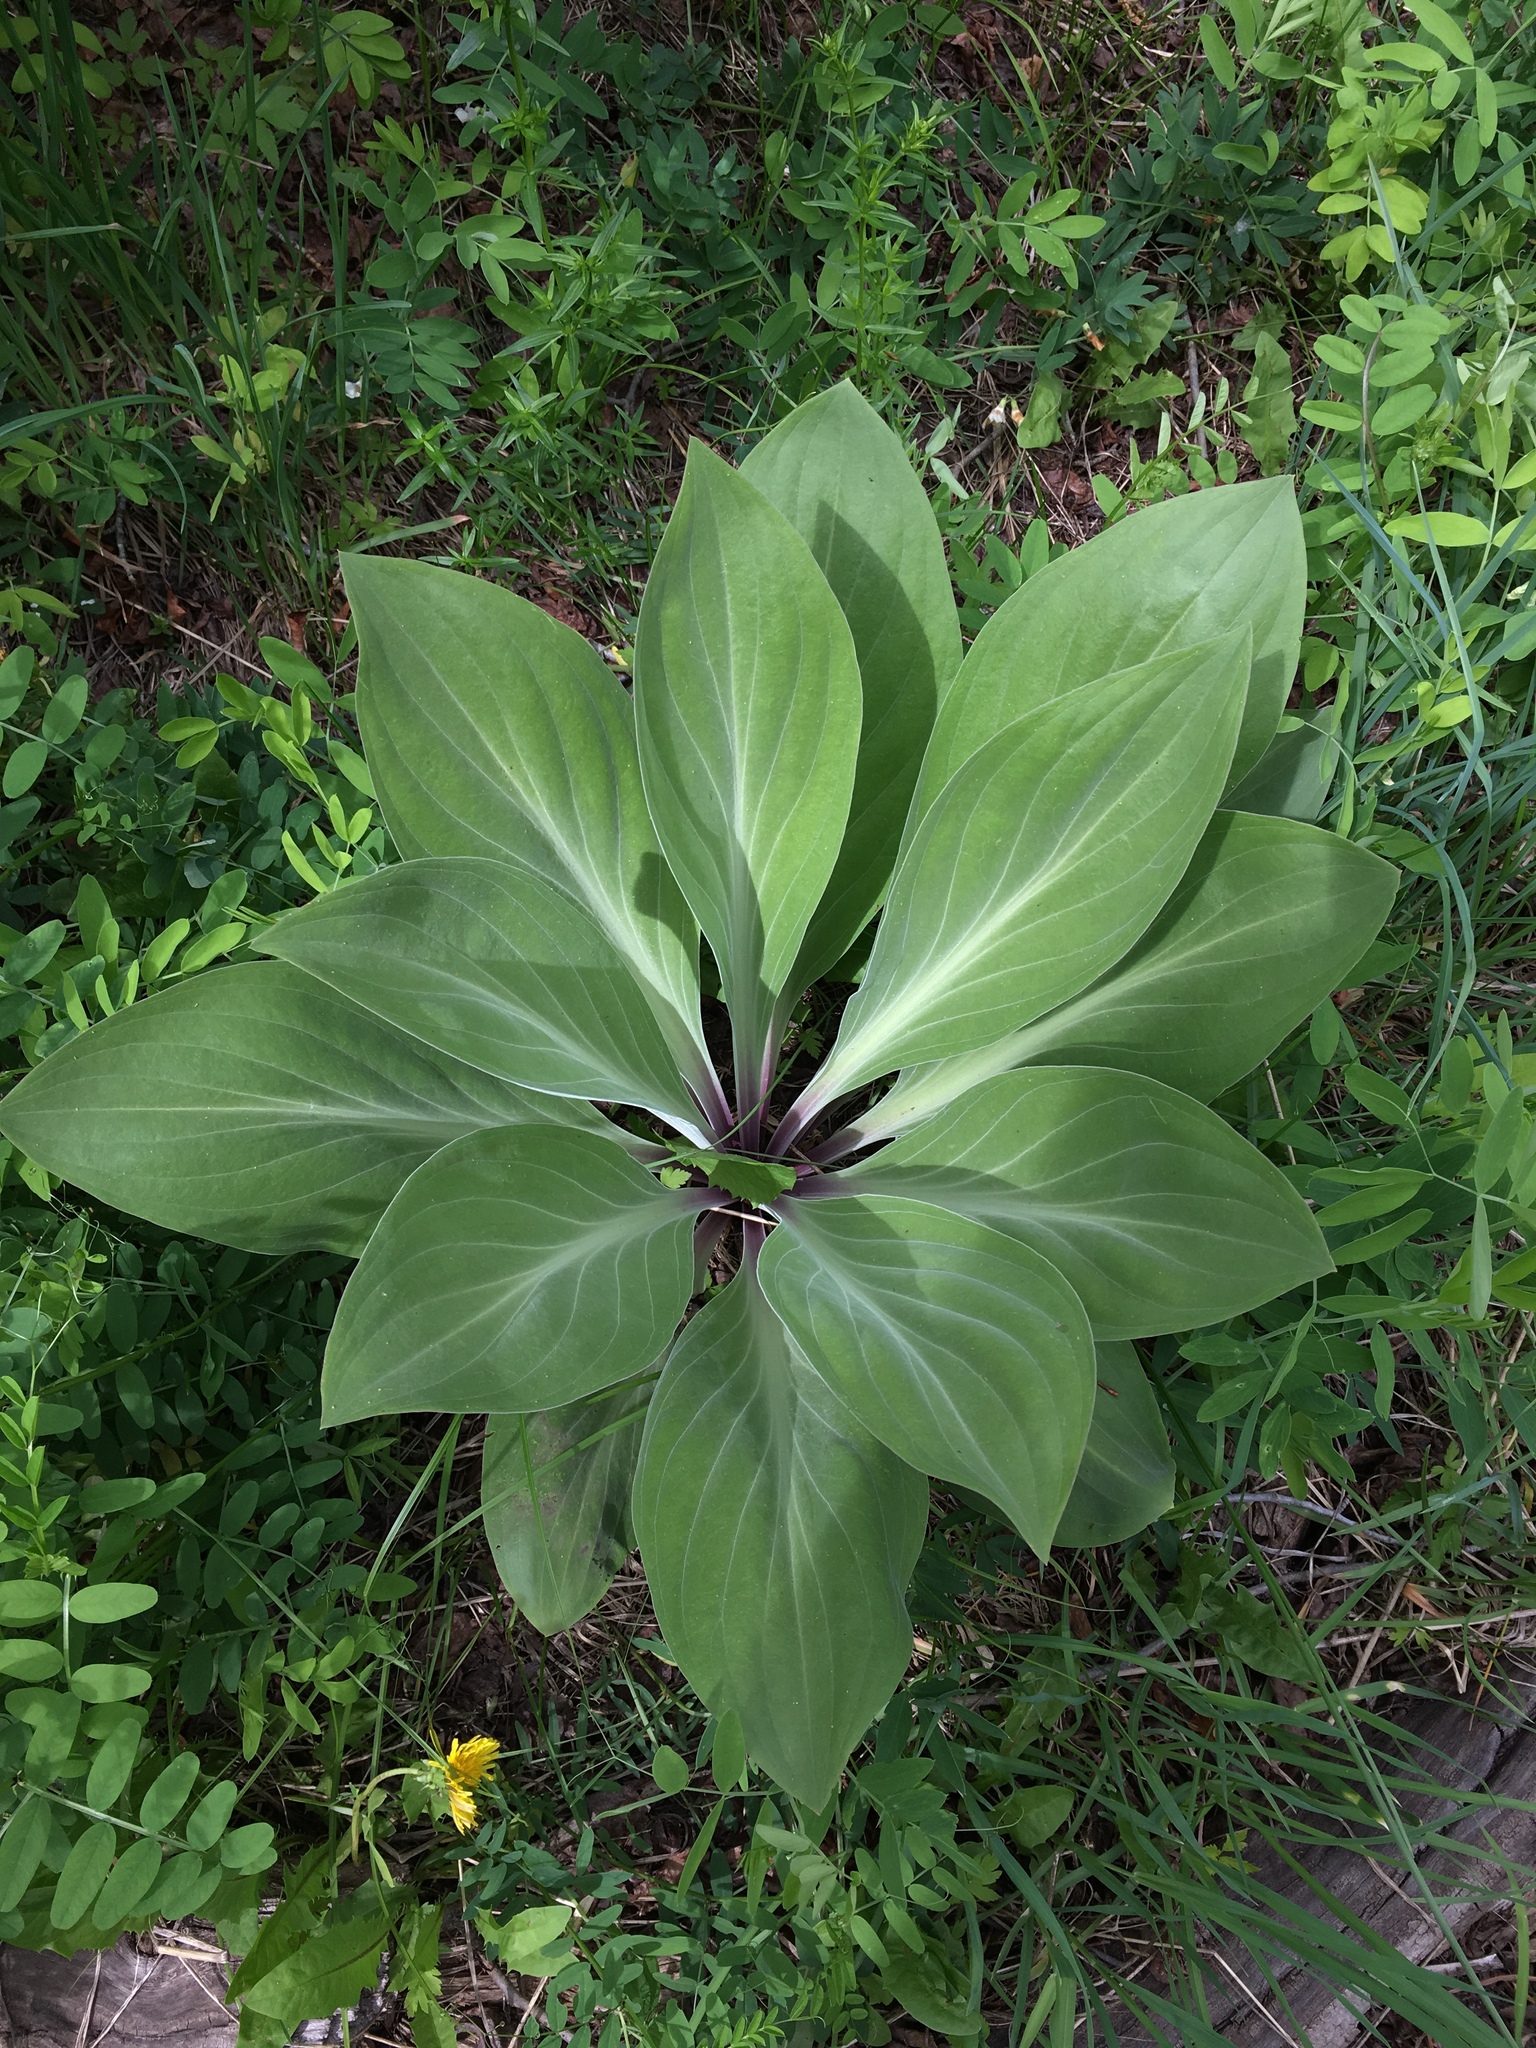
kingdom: Plantae
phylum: Tracheophyta
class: Magnoliopsida
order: Gentianales
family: Gentianaceae
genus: Frasera
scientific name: Frasera speciosa
